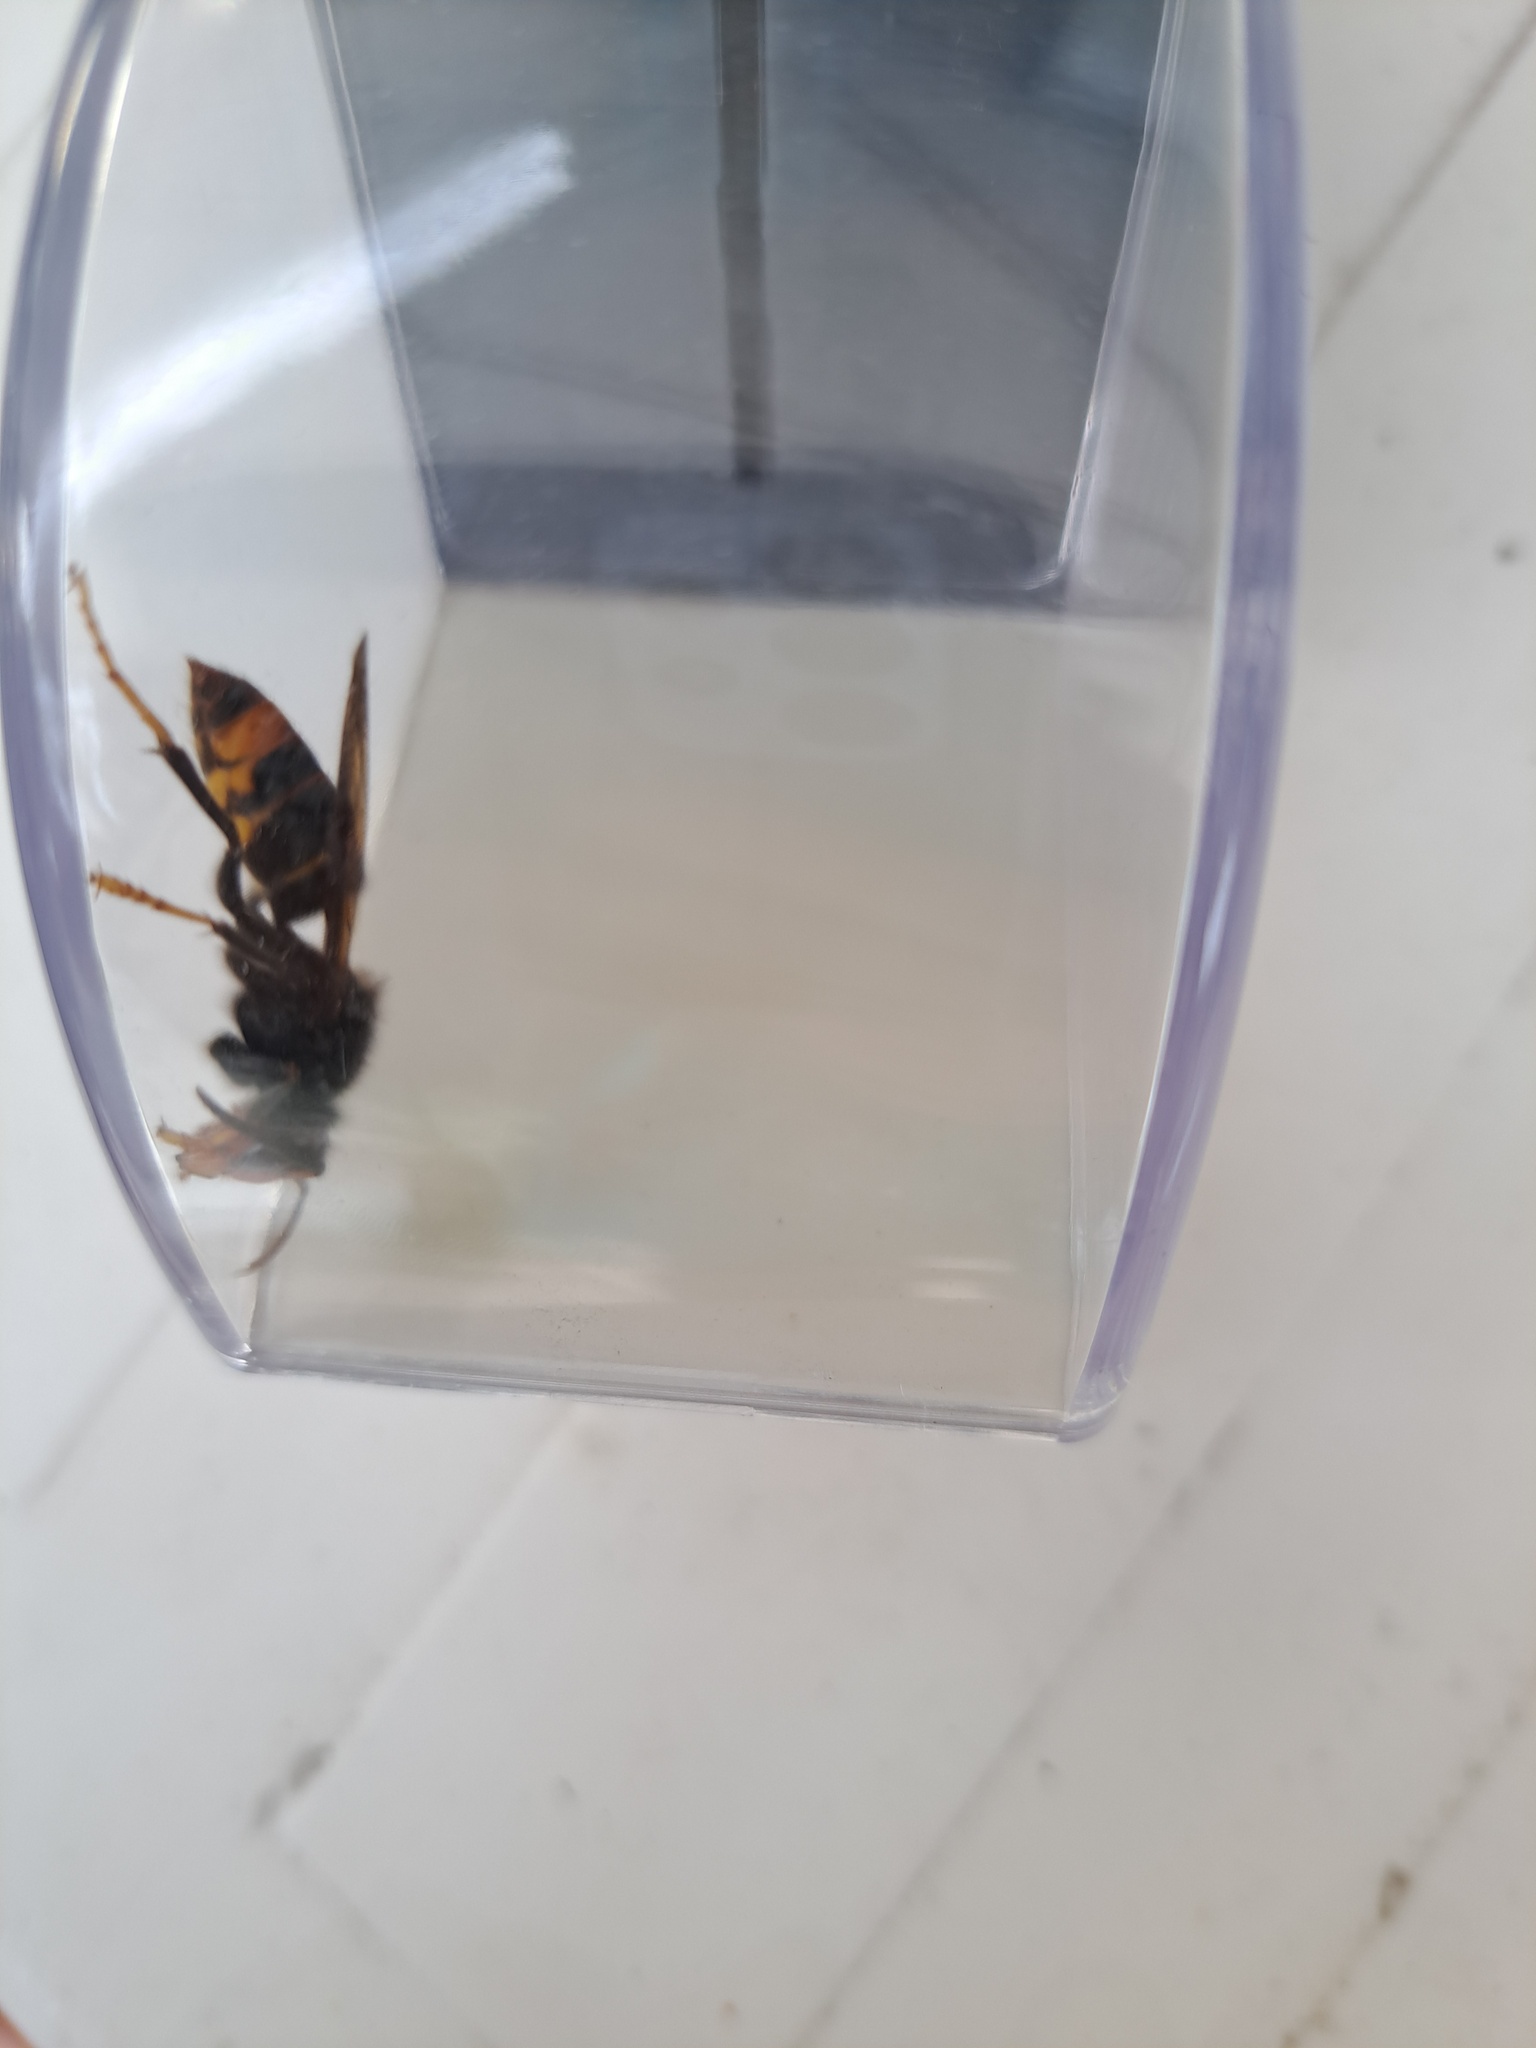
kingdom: Animalia
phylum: Arthropoda
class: Insecta
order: Hymenoptera
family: Vespidae
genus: Vespa
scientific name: Vespa velutina
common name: Asian hornet
